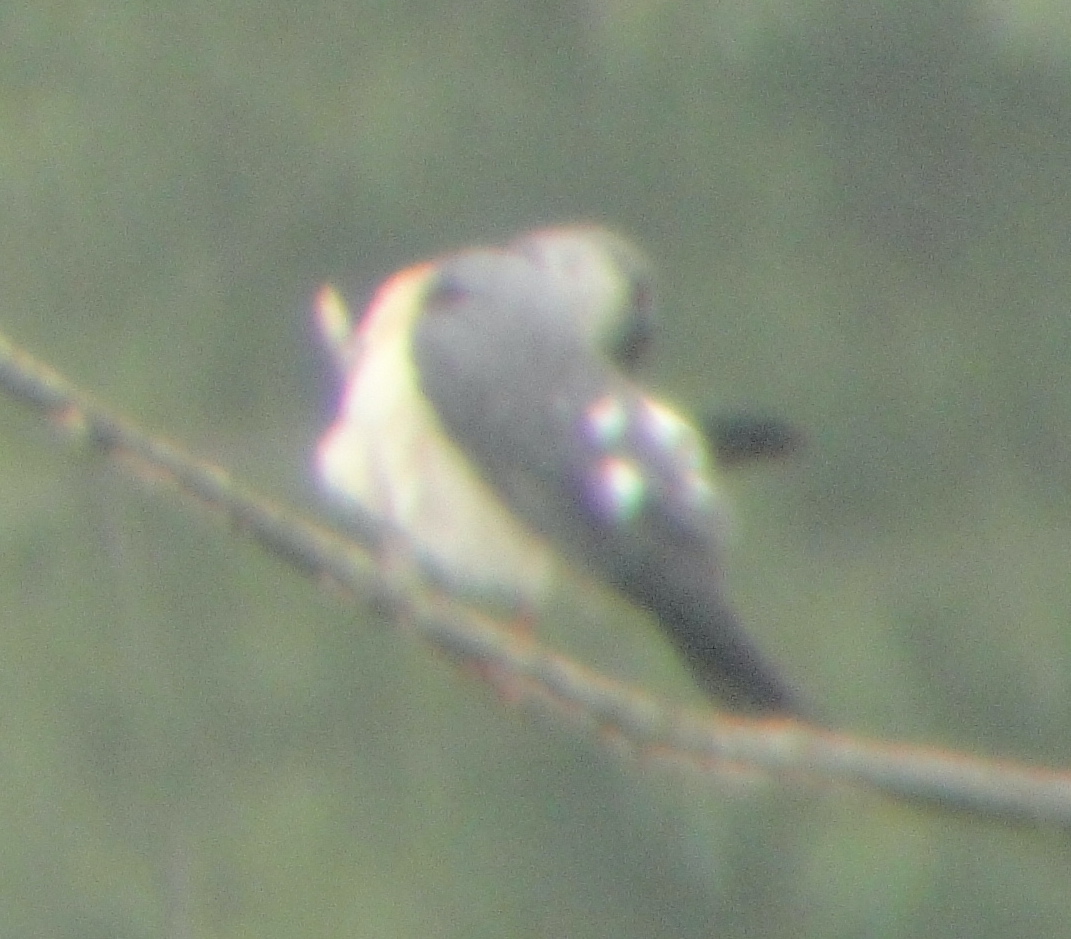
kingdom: Animalia
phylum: Chordata
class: Aves
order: Accipitriformes
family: Accipitridae
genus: Accipiter
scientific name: Accipiter soloensis
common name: Chinese sparrowhawk
